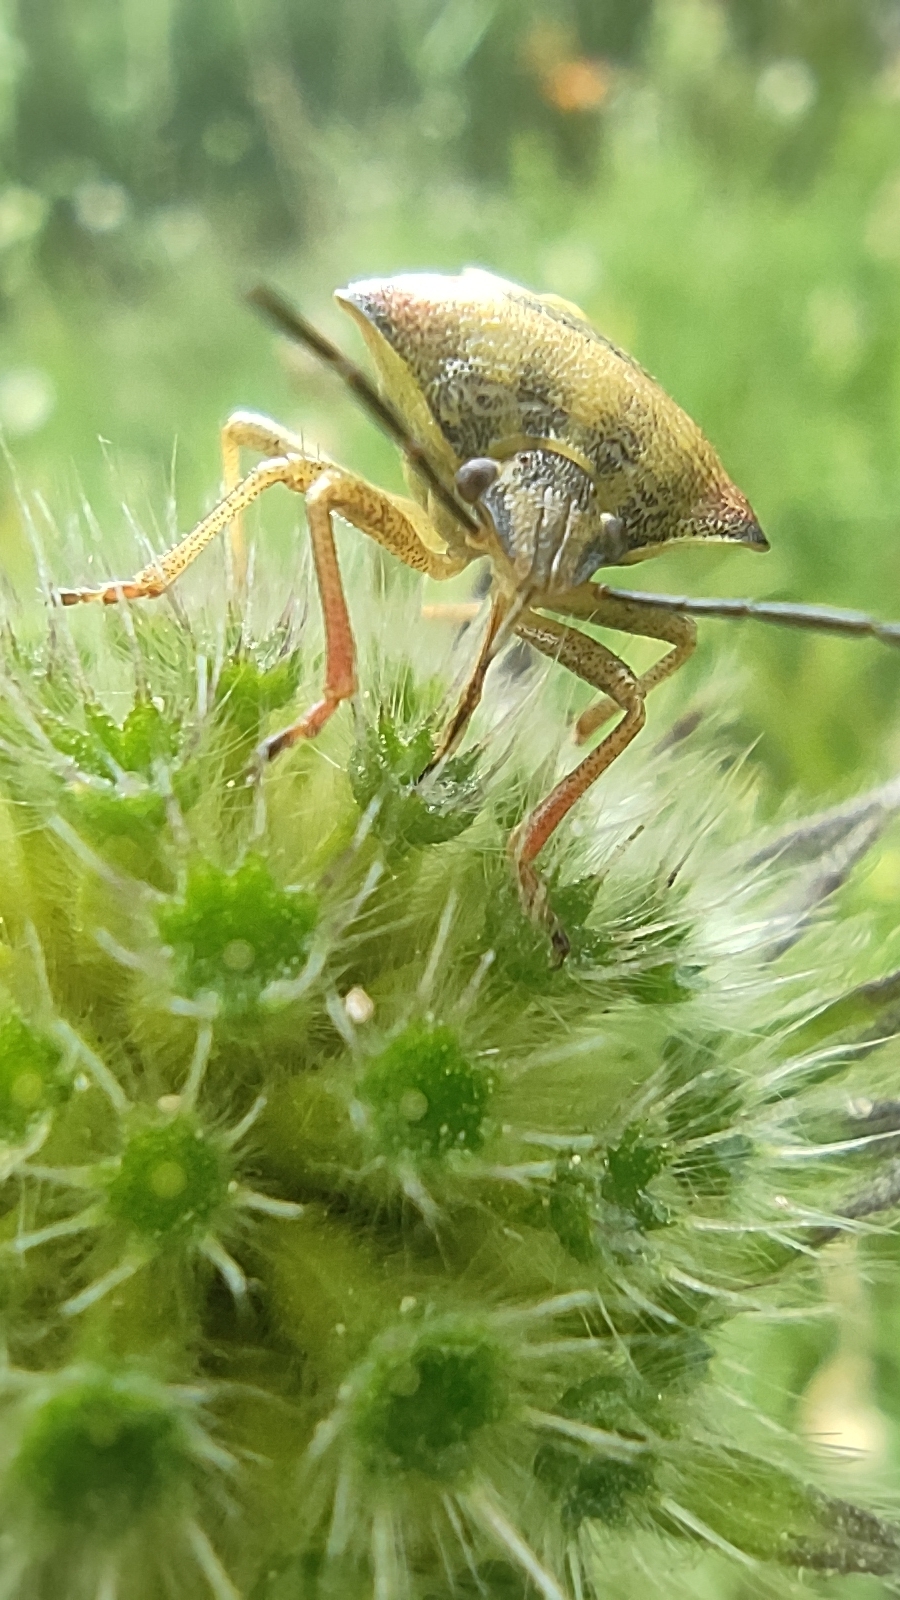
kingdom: Animalia
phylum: Arthropoda
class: Insecta
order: Hemiptera
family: Pentatomidae
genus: Carpocoris
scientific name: Carpocoris purpureipennis
